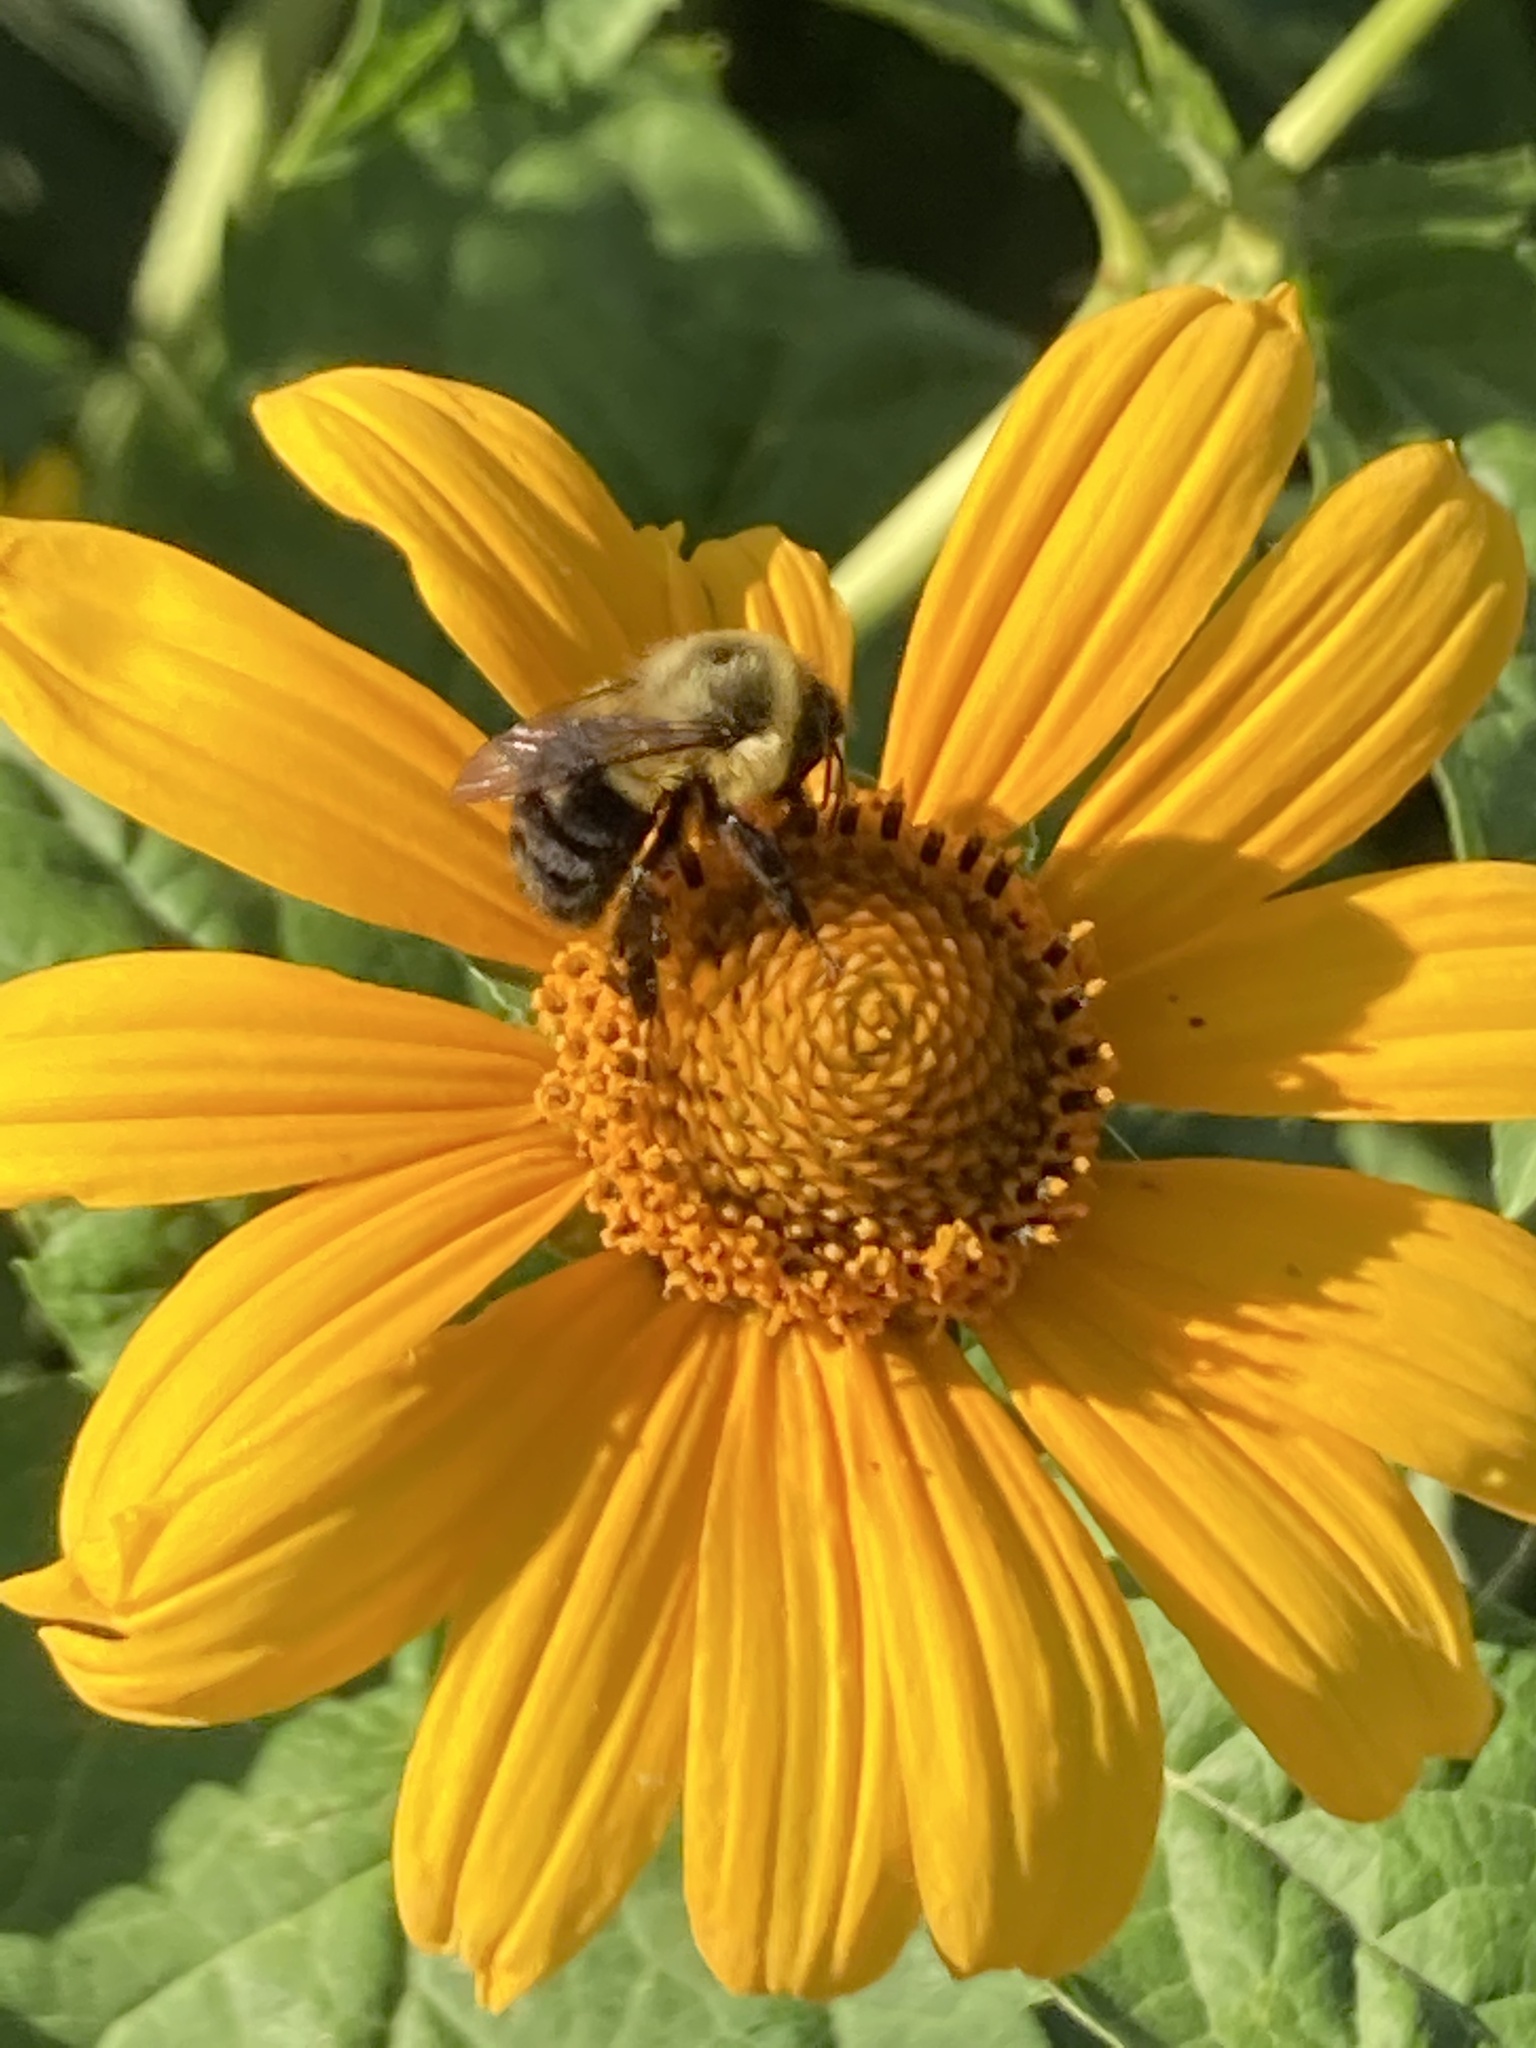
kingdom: Animalia
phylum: Arthropoda
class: Insecta
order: Hymenoptera
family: Apidae
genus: Bombus
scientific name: Bombus impatiens
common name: Common eastern bumble bee
